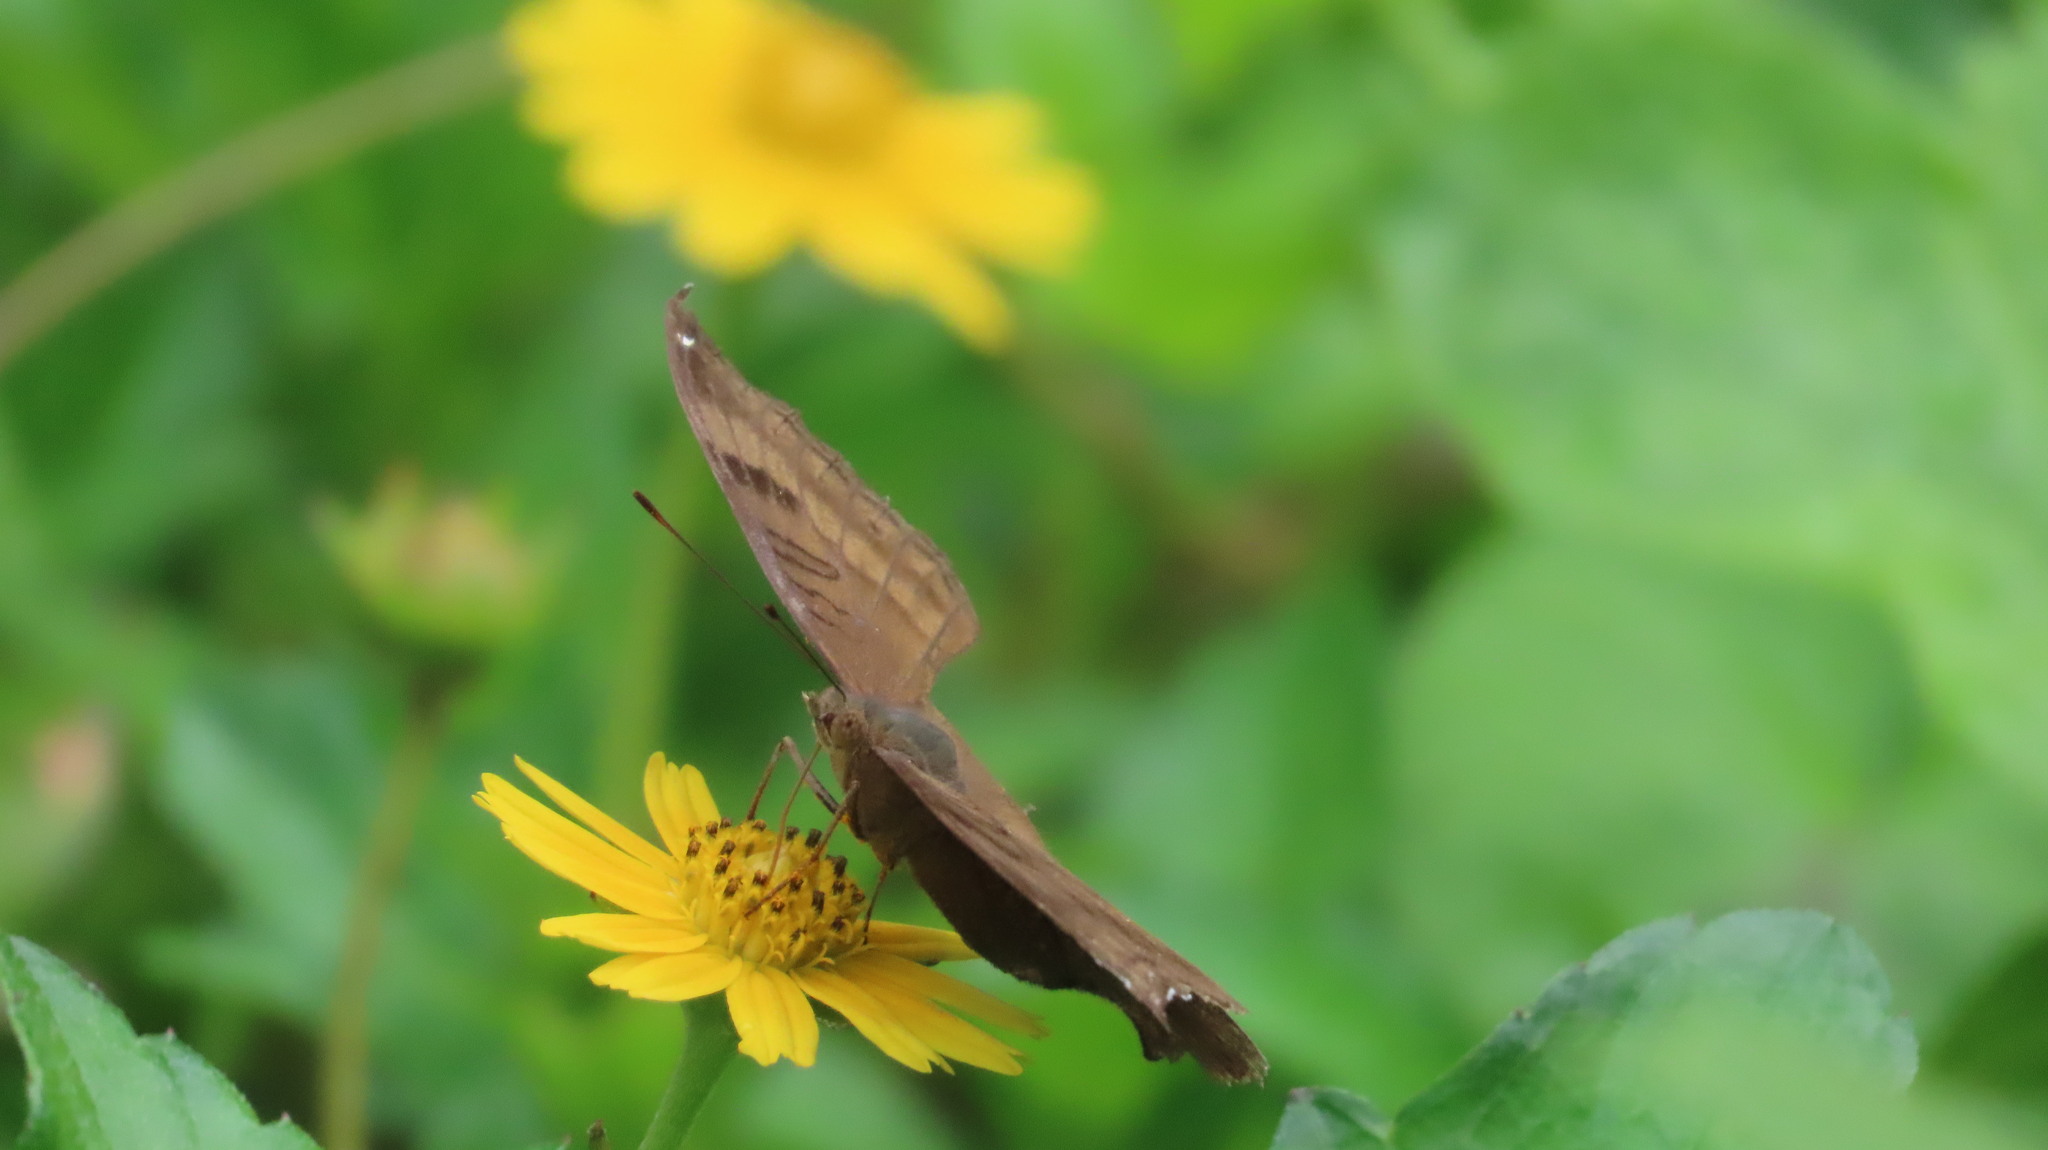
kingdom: Animalia
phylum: Arthropoda
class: Insecta
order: Lepidoptera
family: Nymphalidae
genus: Junonia
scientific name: Junonia iphita
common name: Chocolate pansy
